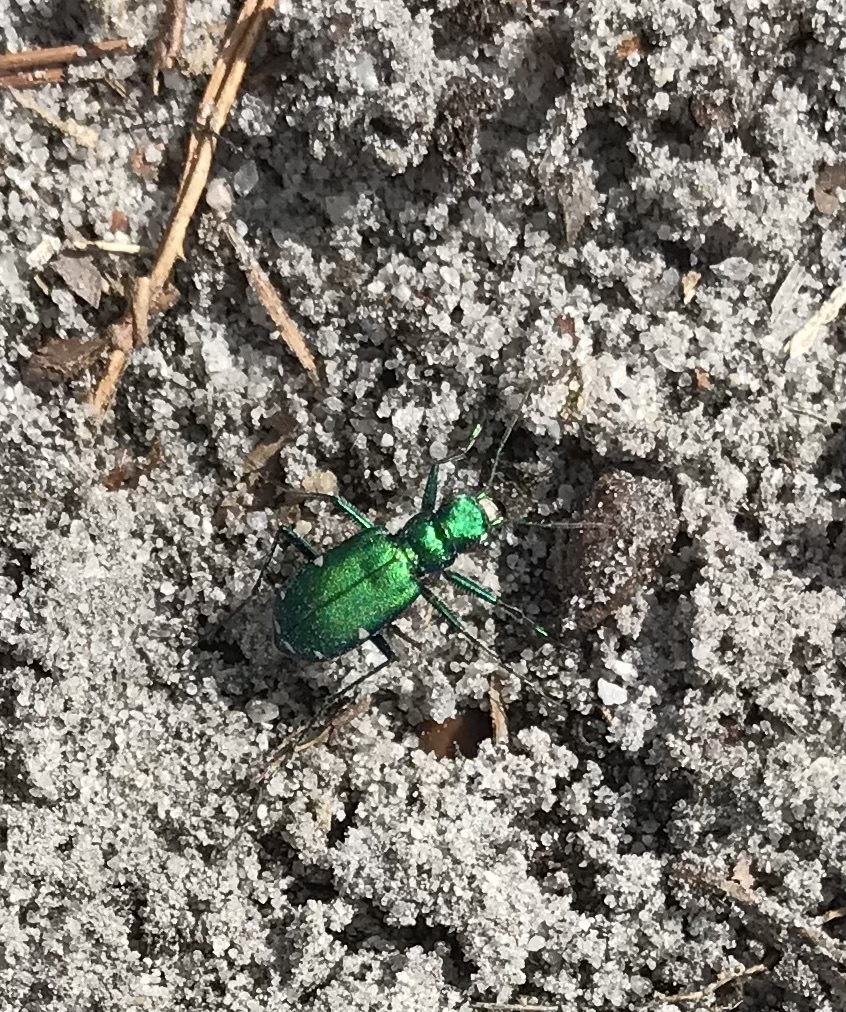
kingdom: Animalia
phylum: Arthropoda
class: Insecta
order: Coleoptera
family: Carabidae
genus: Cicindela
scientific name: Cicindela sexguttata
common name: Six-spotted tiger beetle
